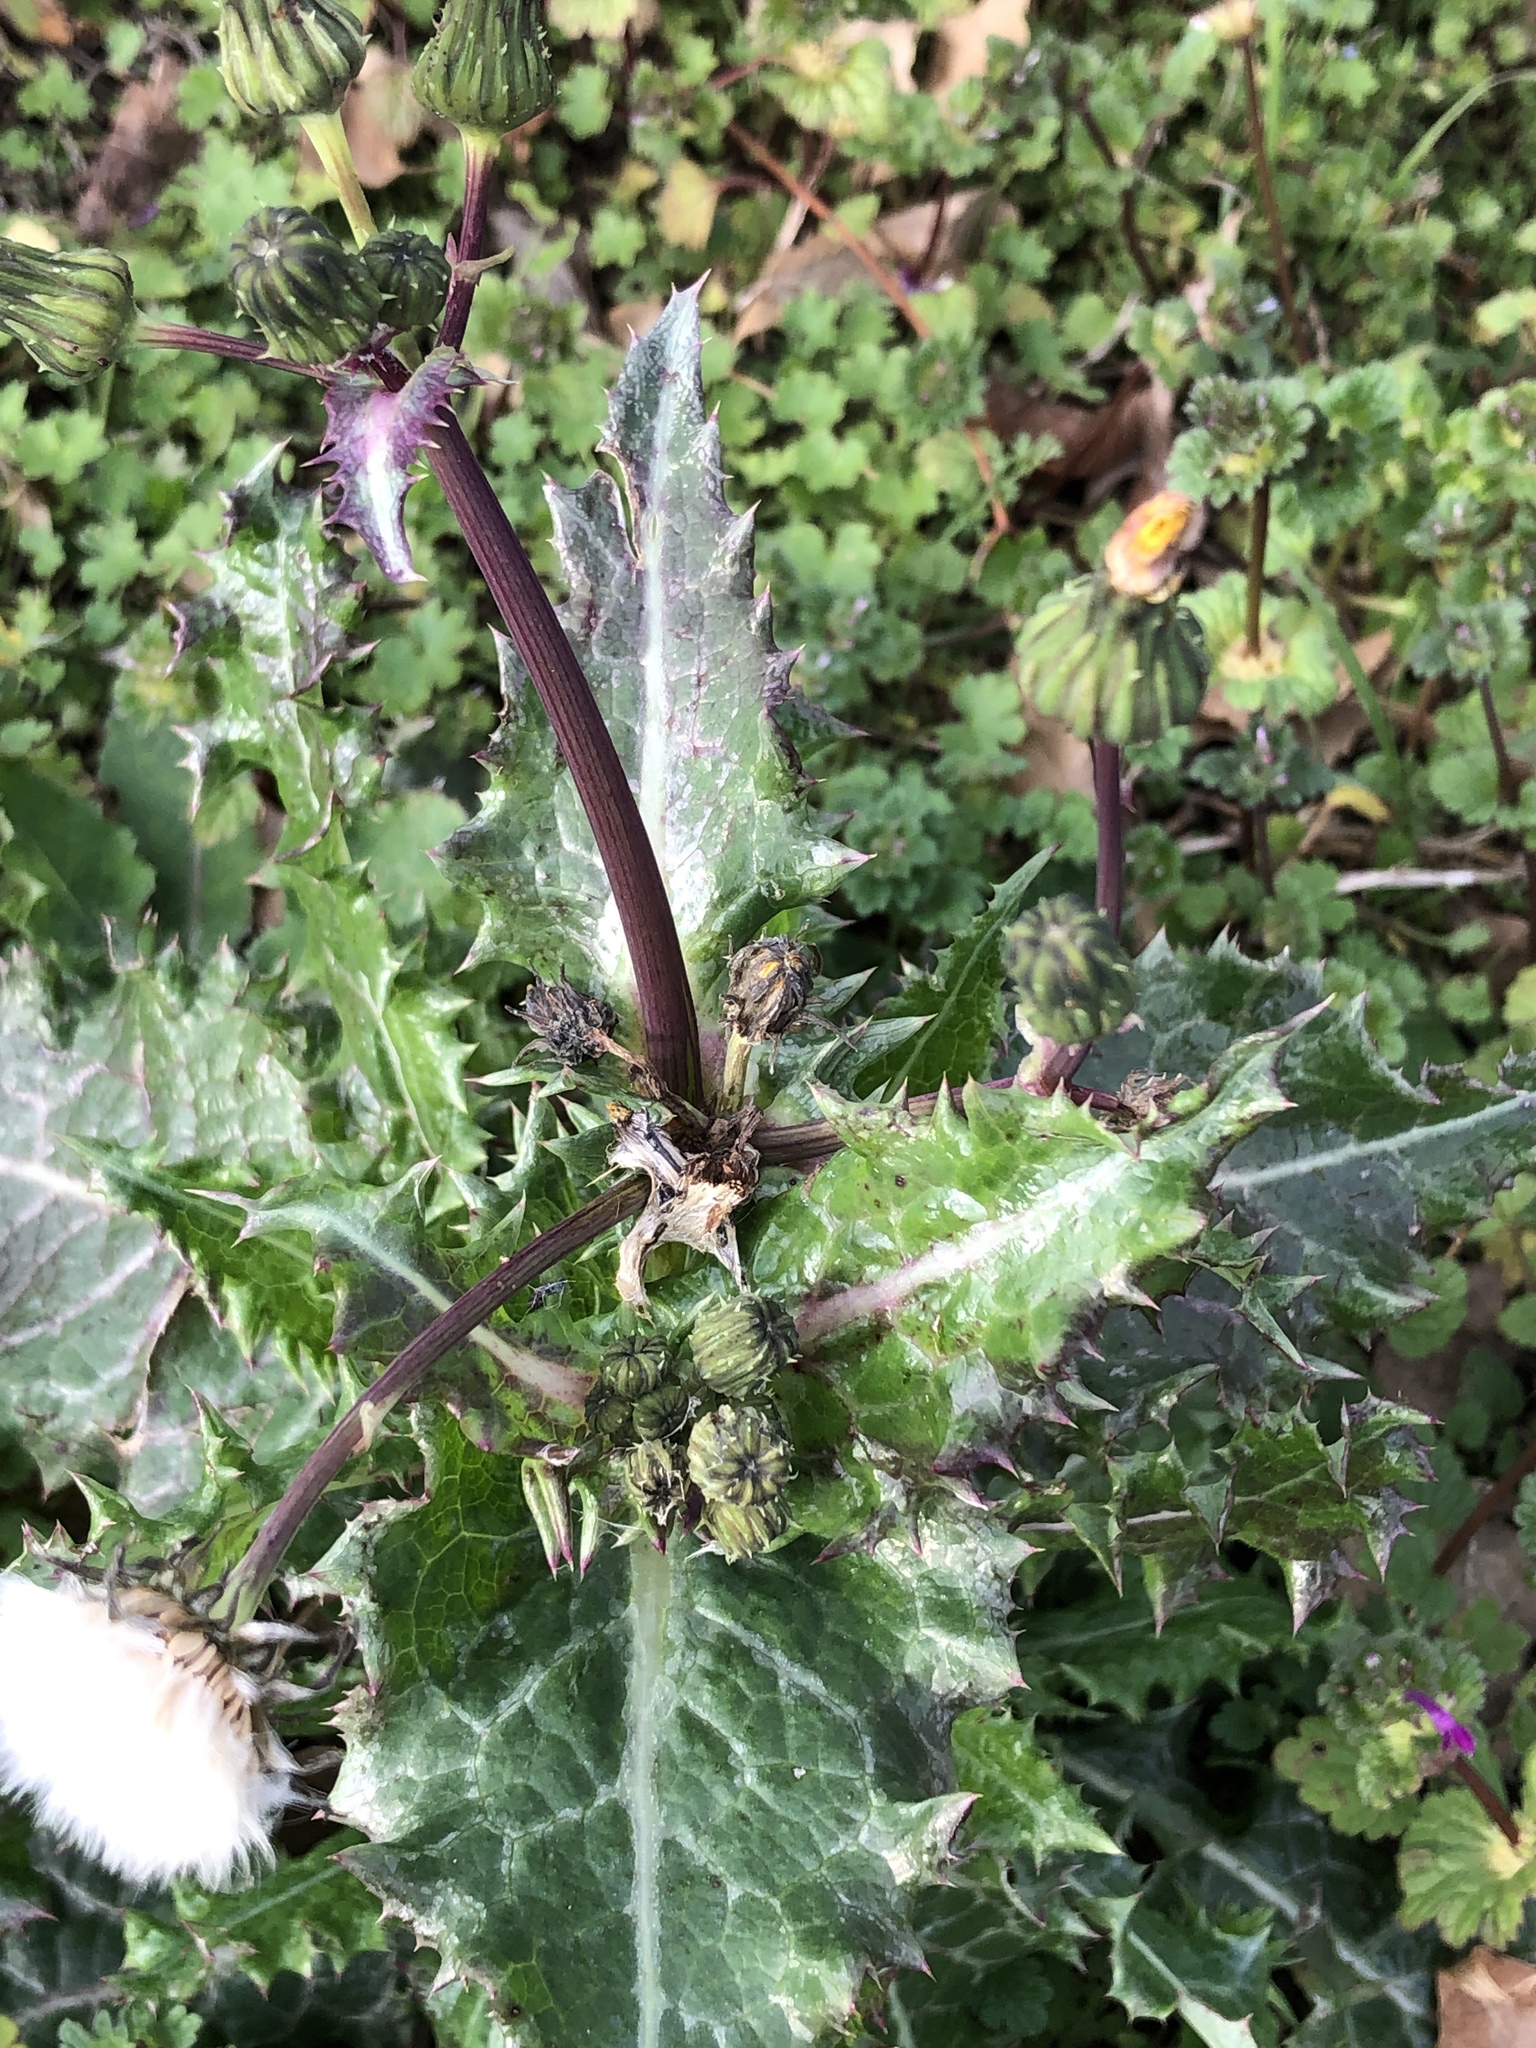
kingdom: Plantae
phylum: Tracheophyta
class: Magnoliopsida
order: Asterales
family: Asteraceae
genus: Sonchus
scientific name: Sonchus asper
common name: Prickly sow-thistle
